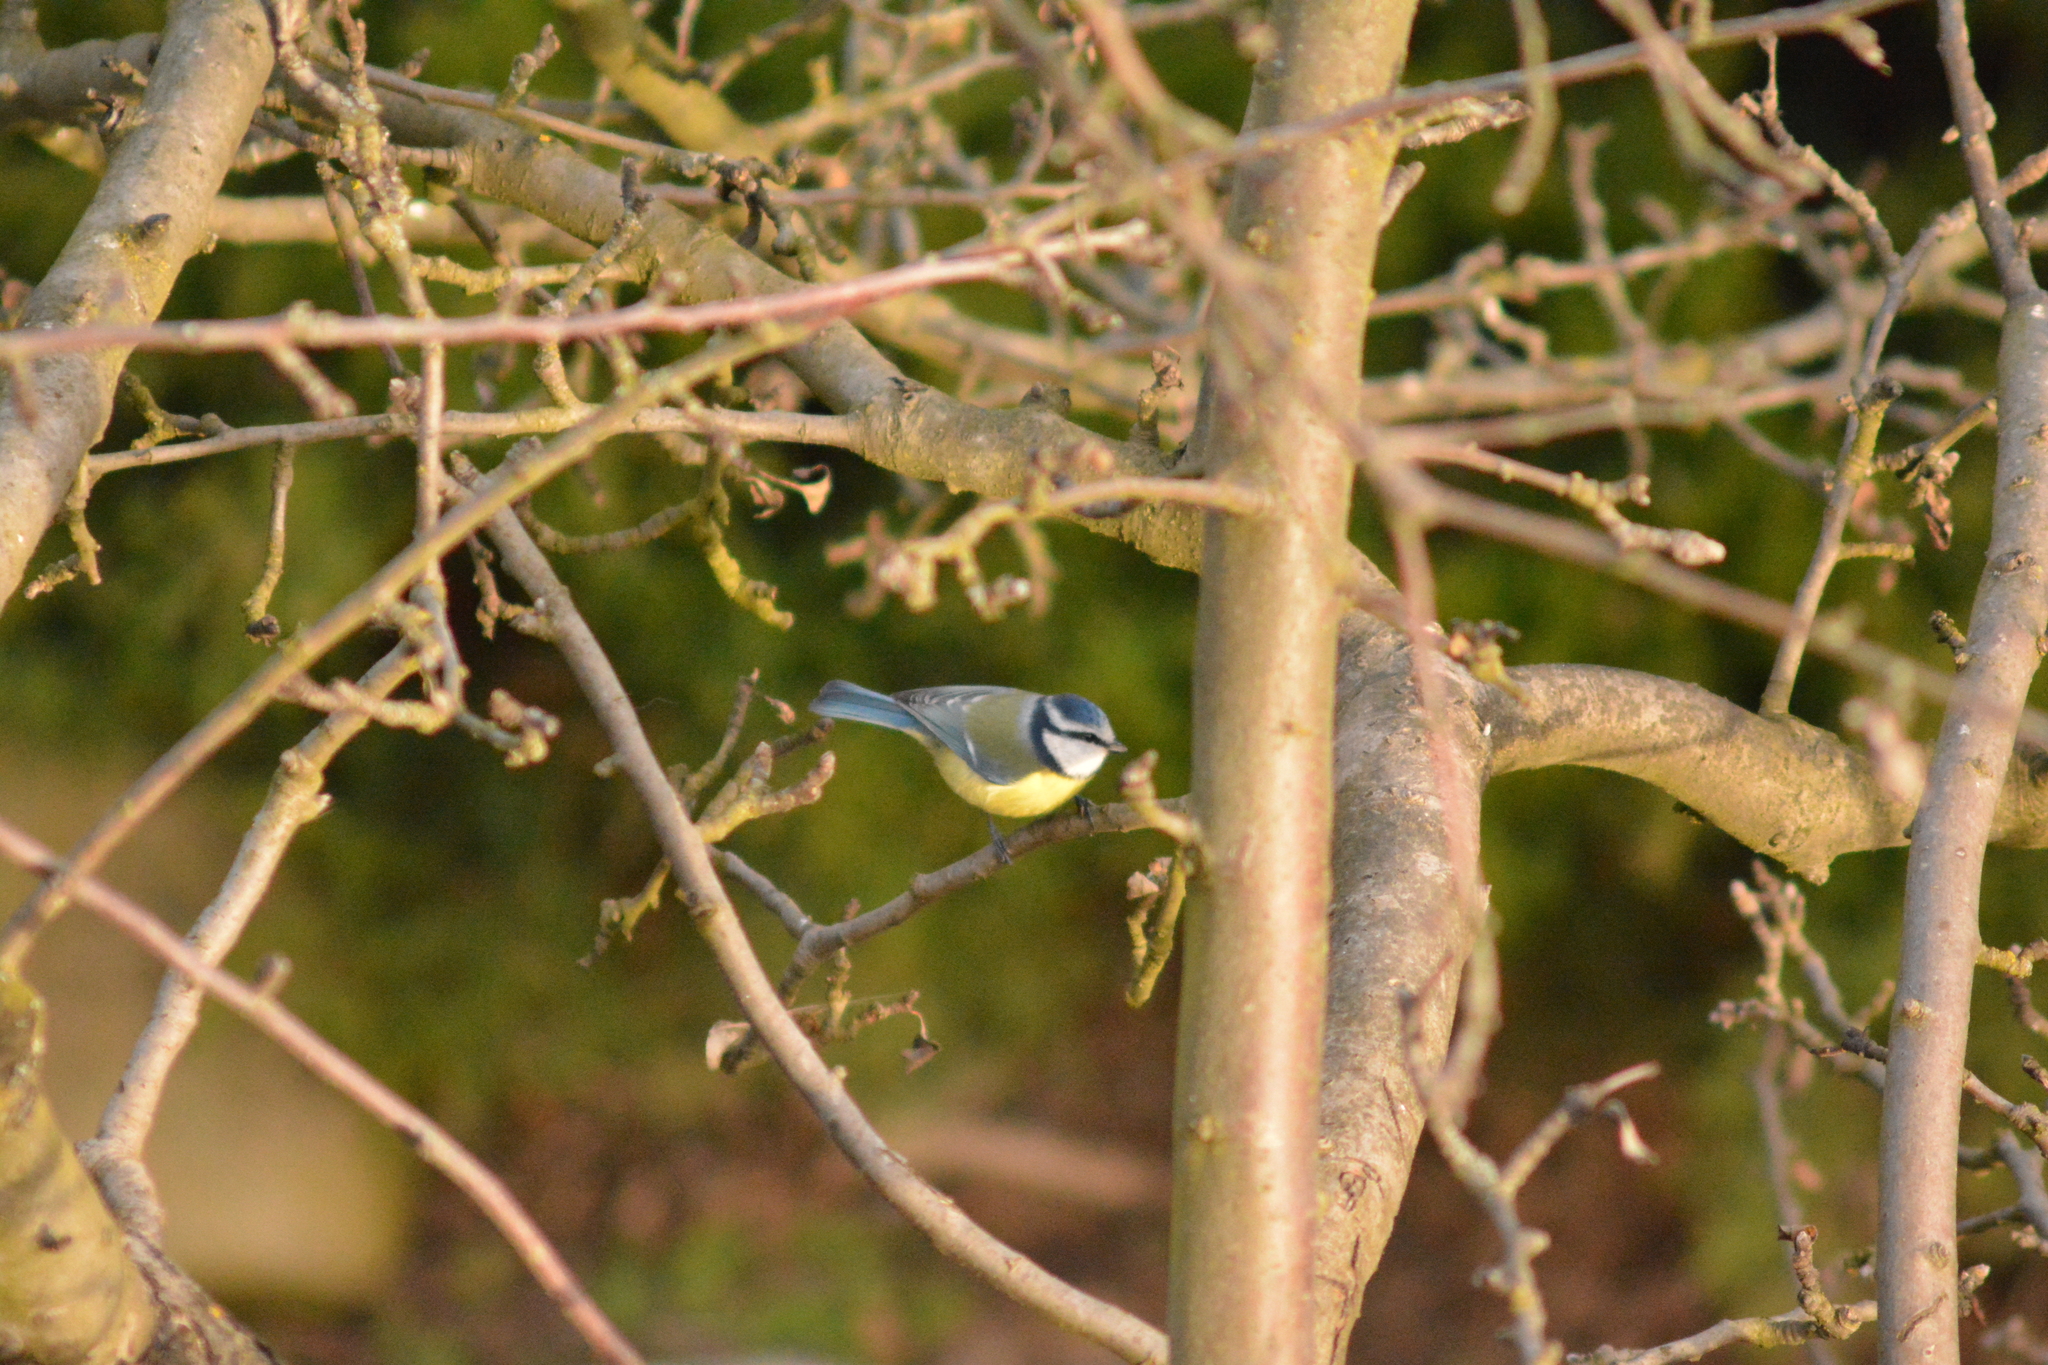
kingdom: Animalia
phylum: Chordata
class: Aves
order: Passeriformes
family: Paridae
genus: Cyanistes
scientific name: Cyanistes caeruleus
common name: Eurasian blue tit
